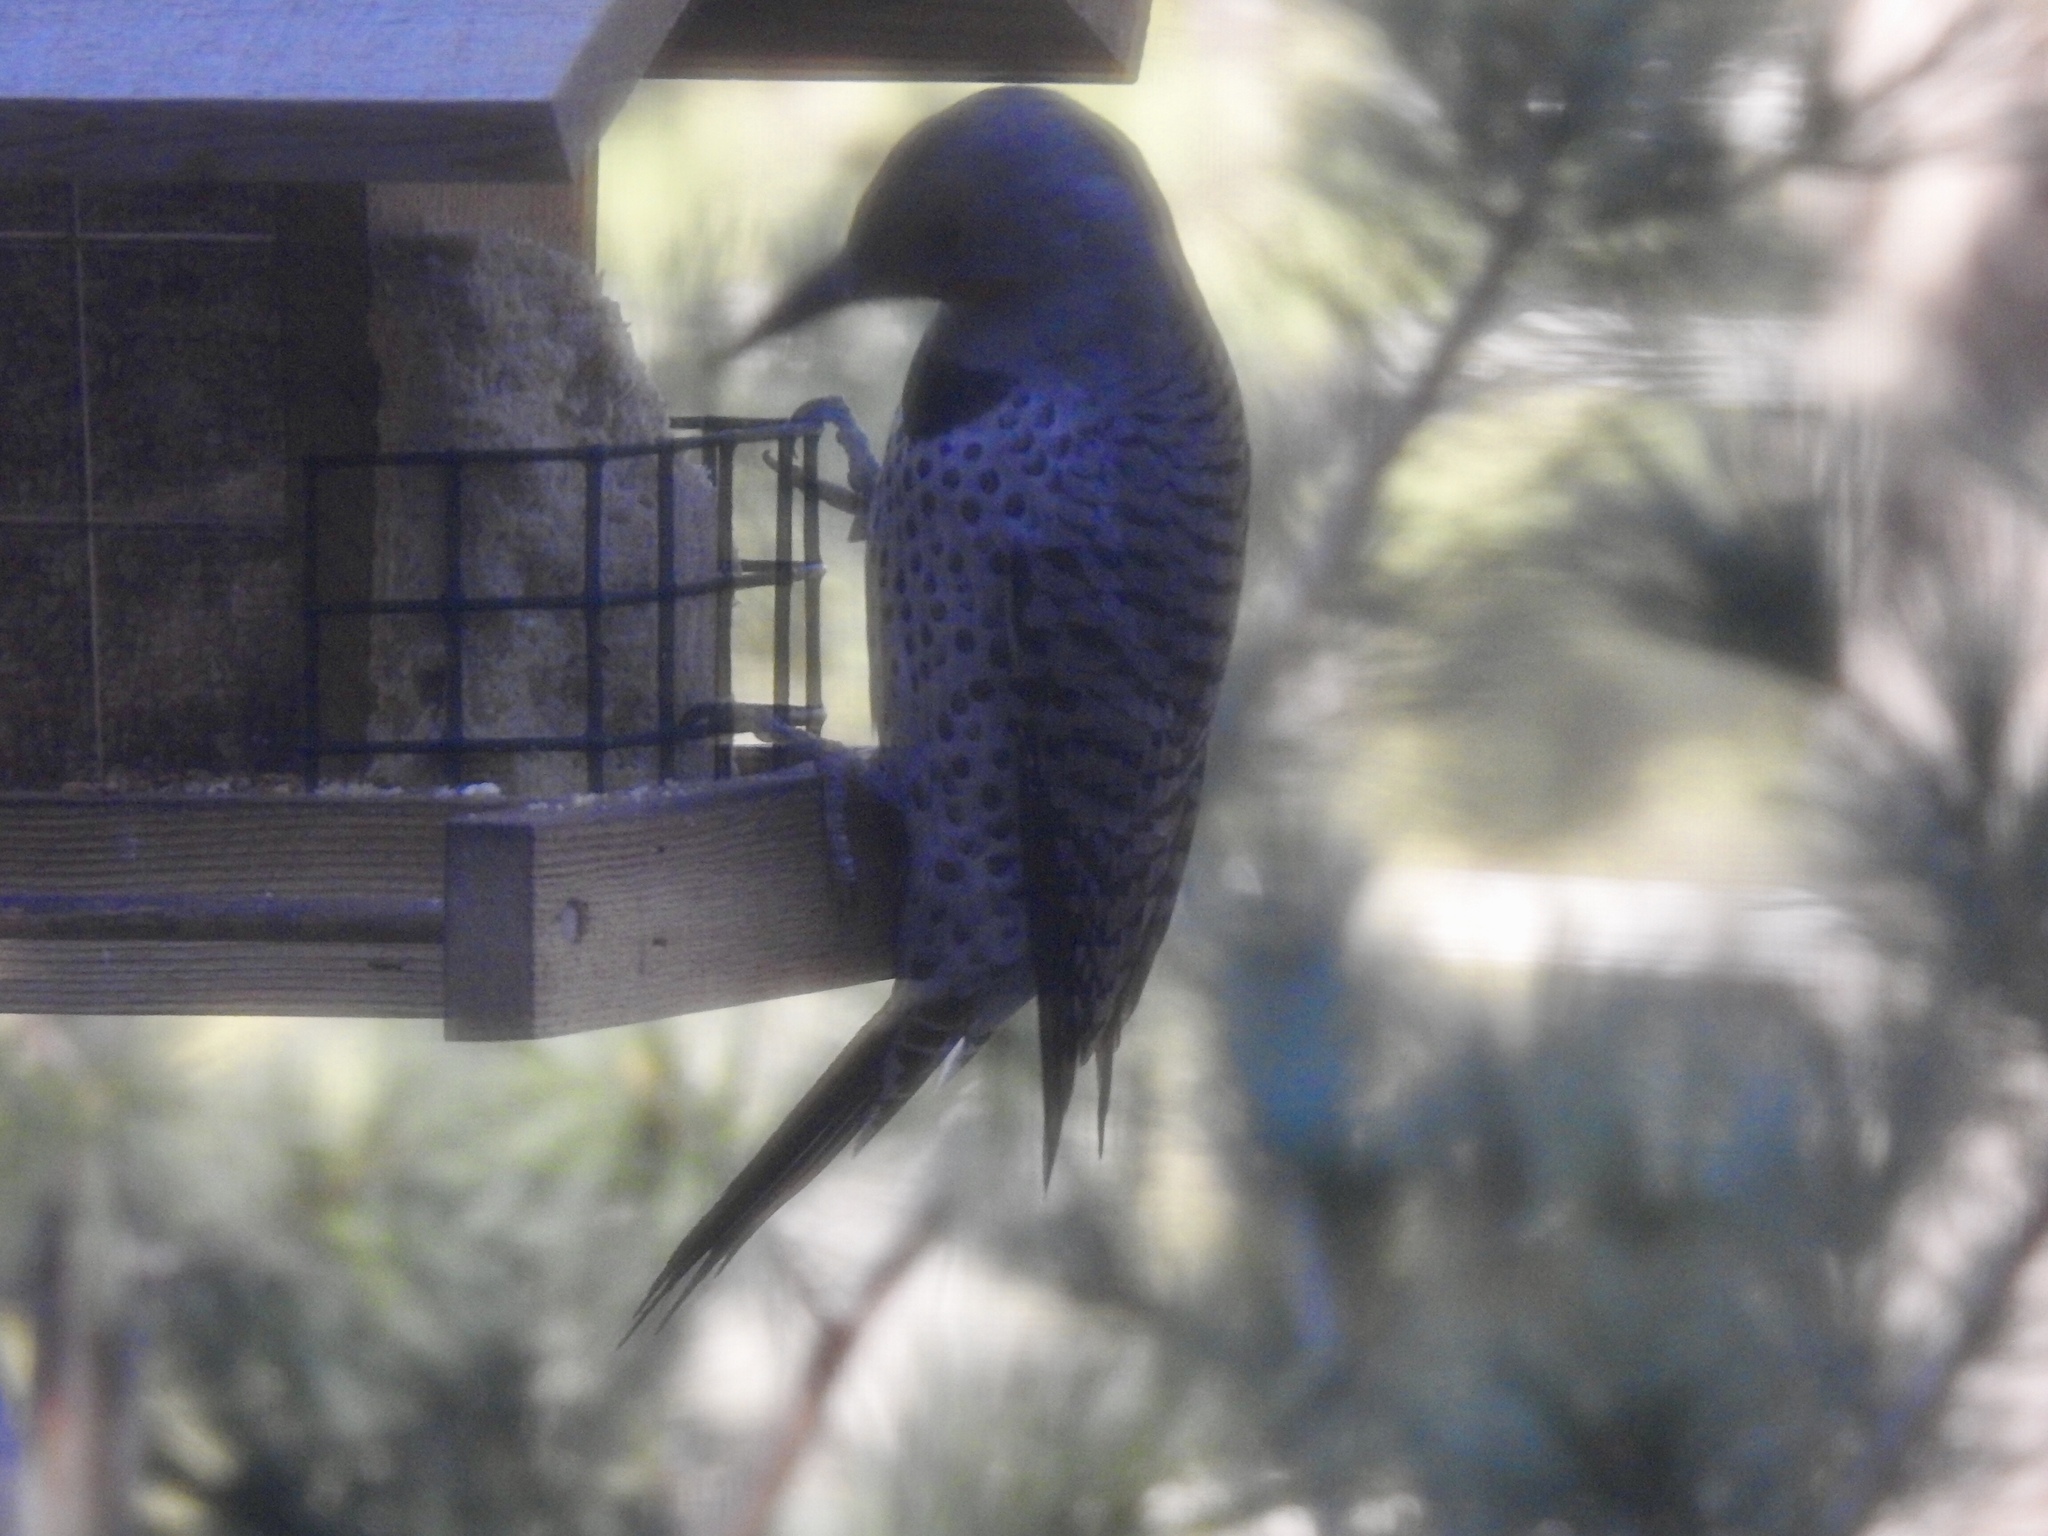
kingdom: Animalia
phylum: Chordata
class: Aves
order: Piciformes
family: Picidae
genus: Colaptes
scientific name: Colaptes auratus
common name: Northern flicker
